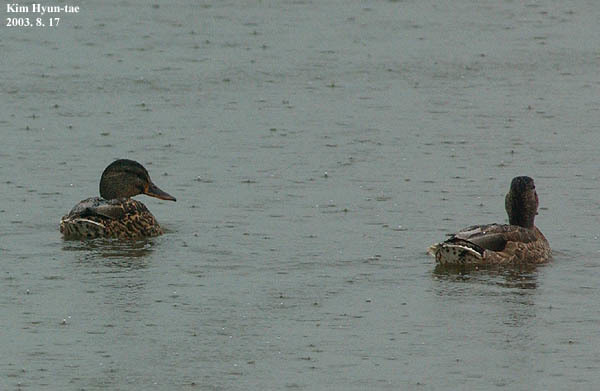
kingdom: Animalia
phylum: Chordata
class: Aves
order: Anseriformes
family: Anatidae
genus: Anas
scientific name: Anas platyrhynchos
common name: Mallard
